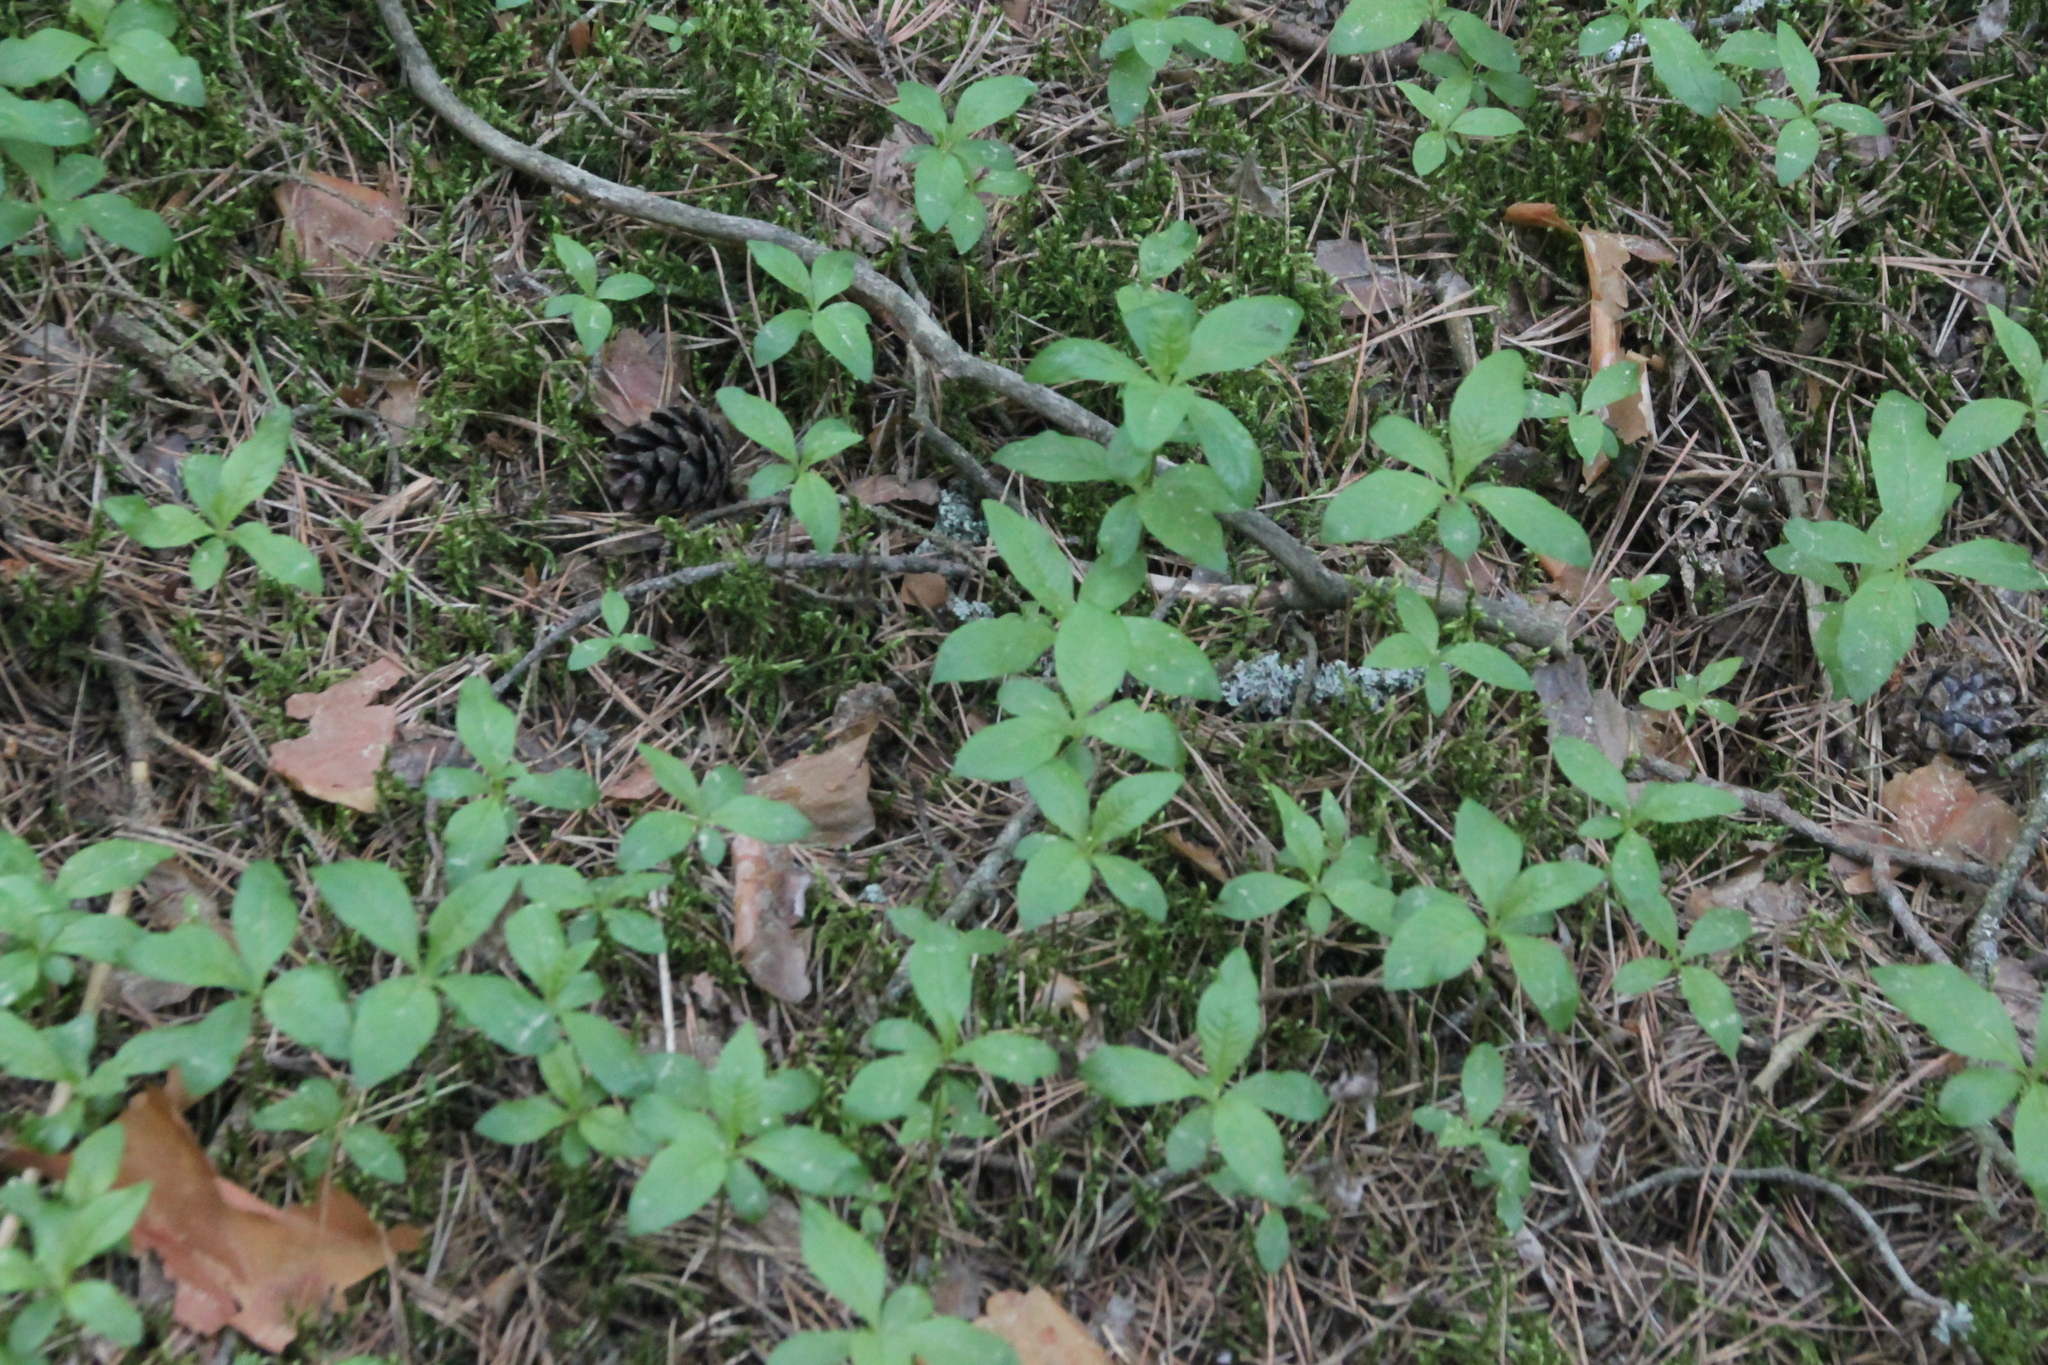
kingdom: Plantae
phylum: Tracheophyta
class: Magnoliopsida
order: Ericales
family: Primulaceae
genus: Lysimachia
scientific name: Lysimachia europaea
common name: Arctic starflower
